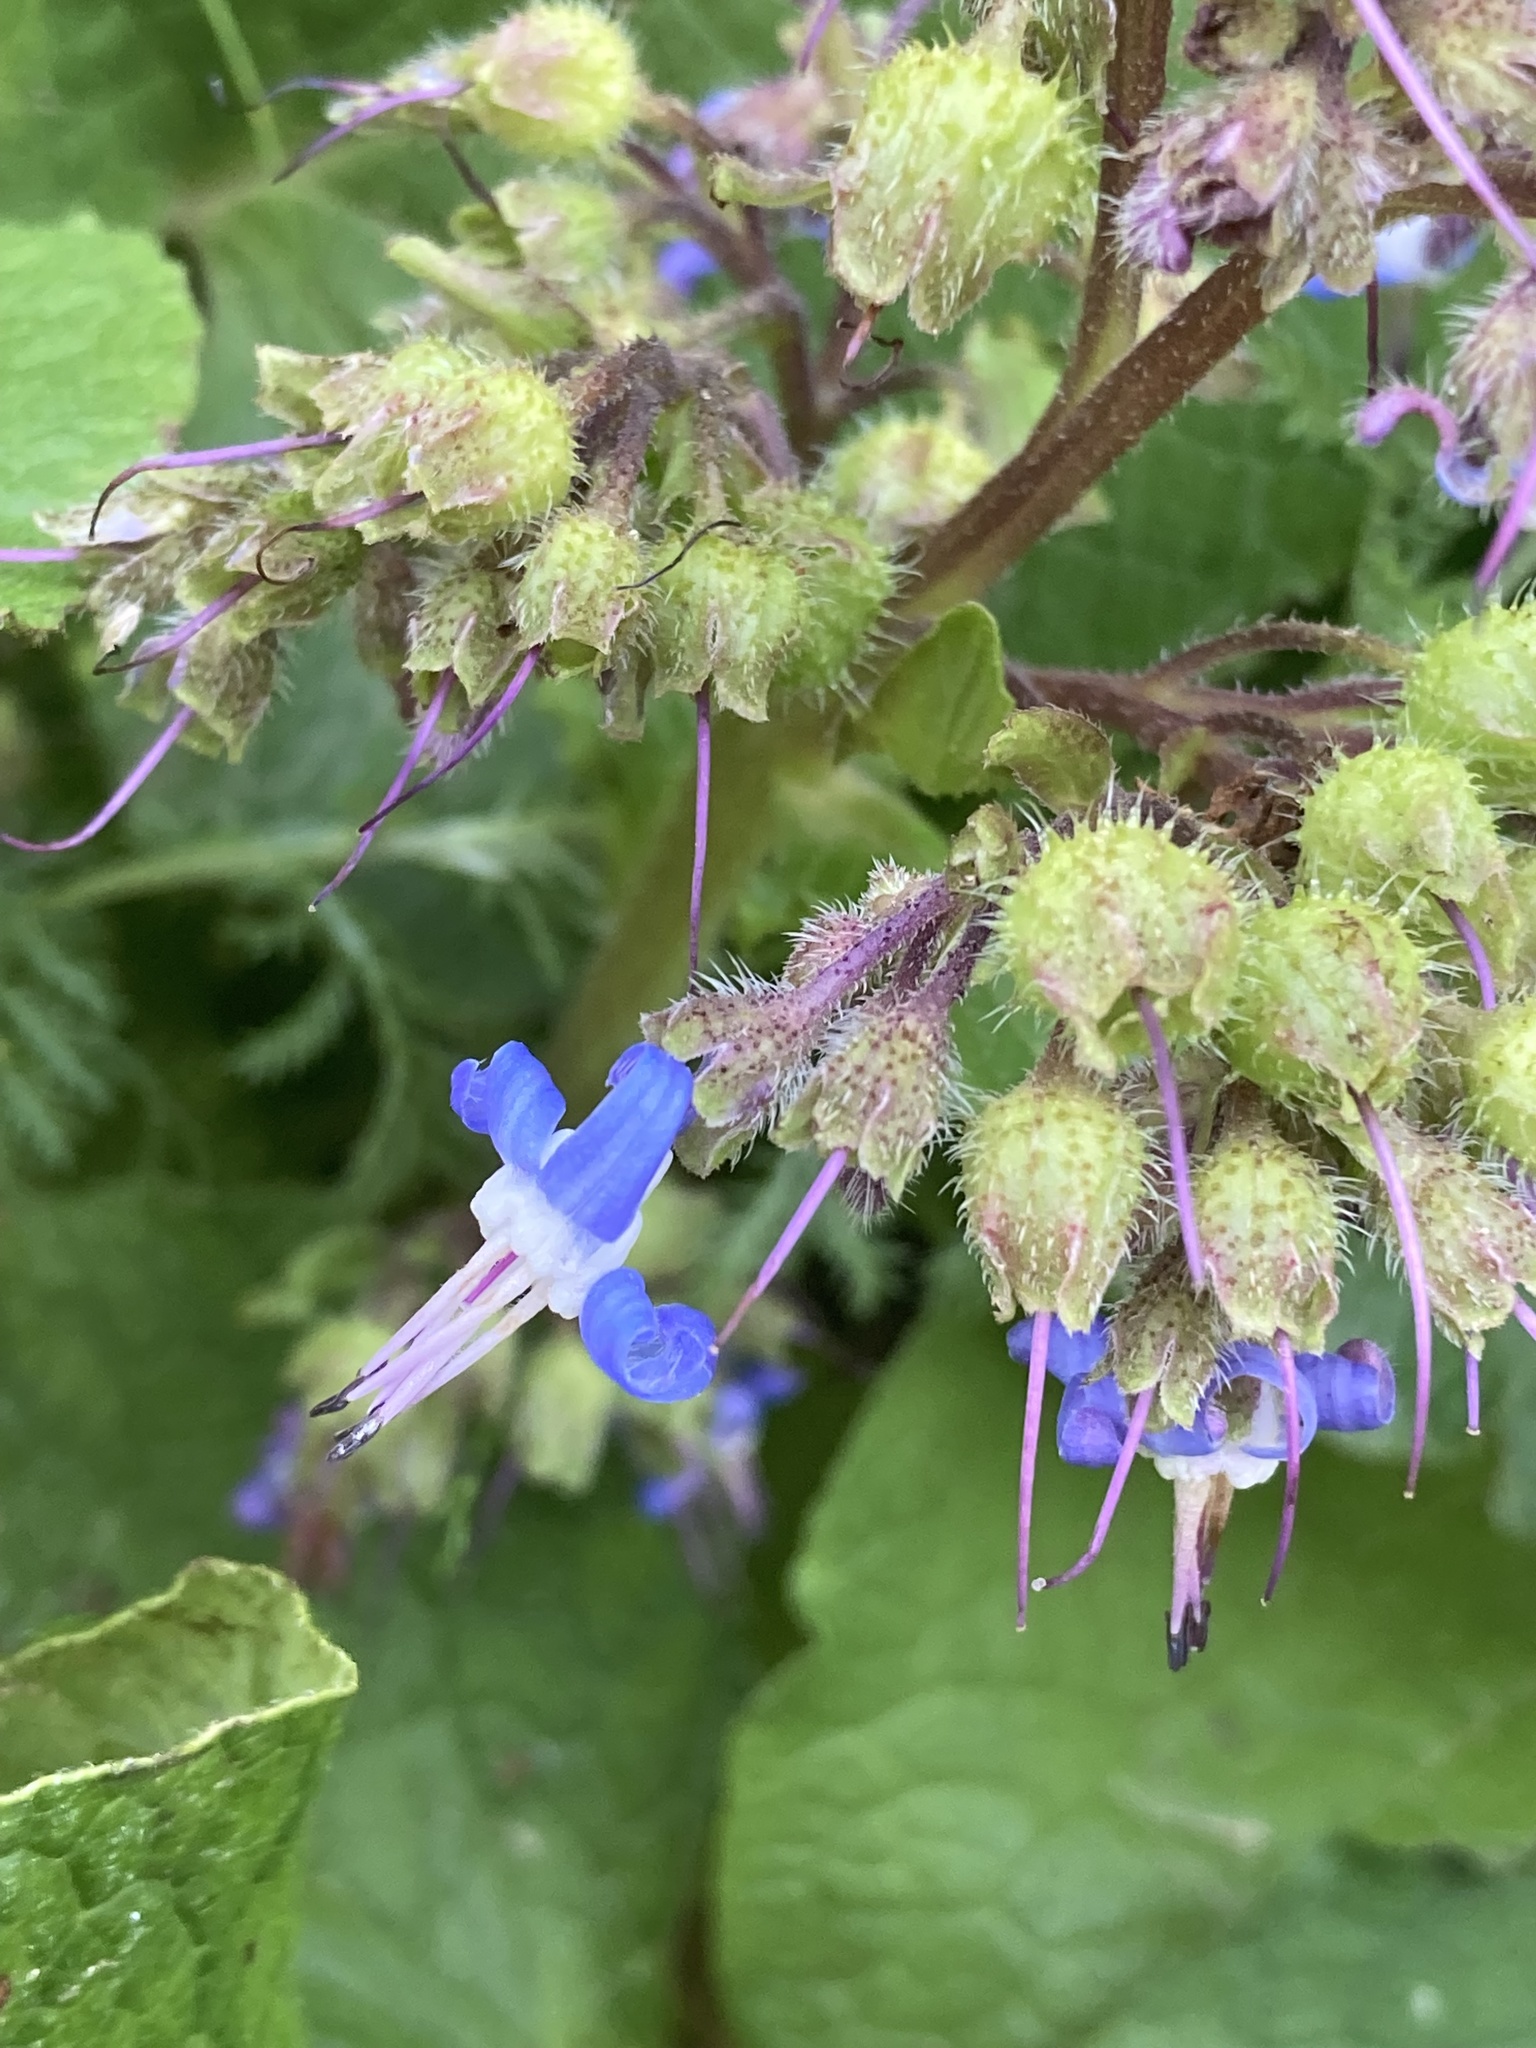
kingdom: Plantae
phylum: Tracheophyta
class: Magnoliopsida
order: Boraginales
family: Boraginaceae
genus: Trachystemon
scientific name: Trachystemon orientale
